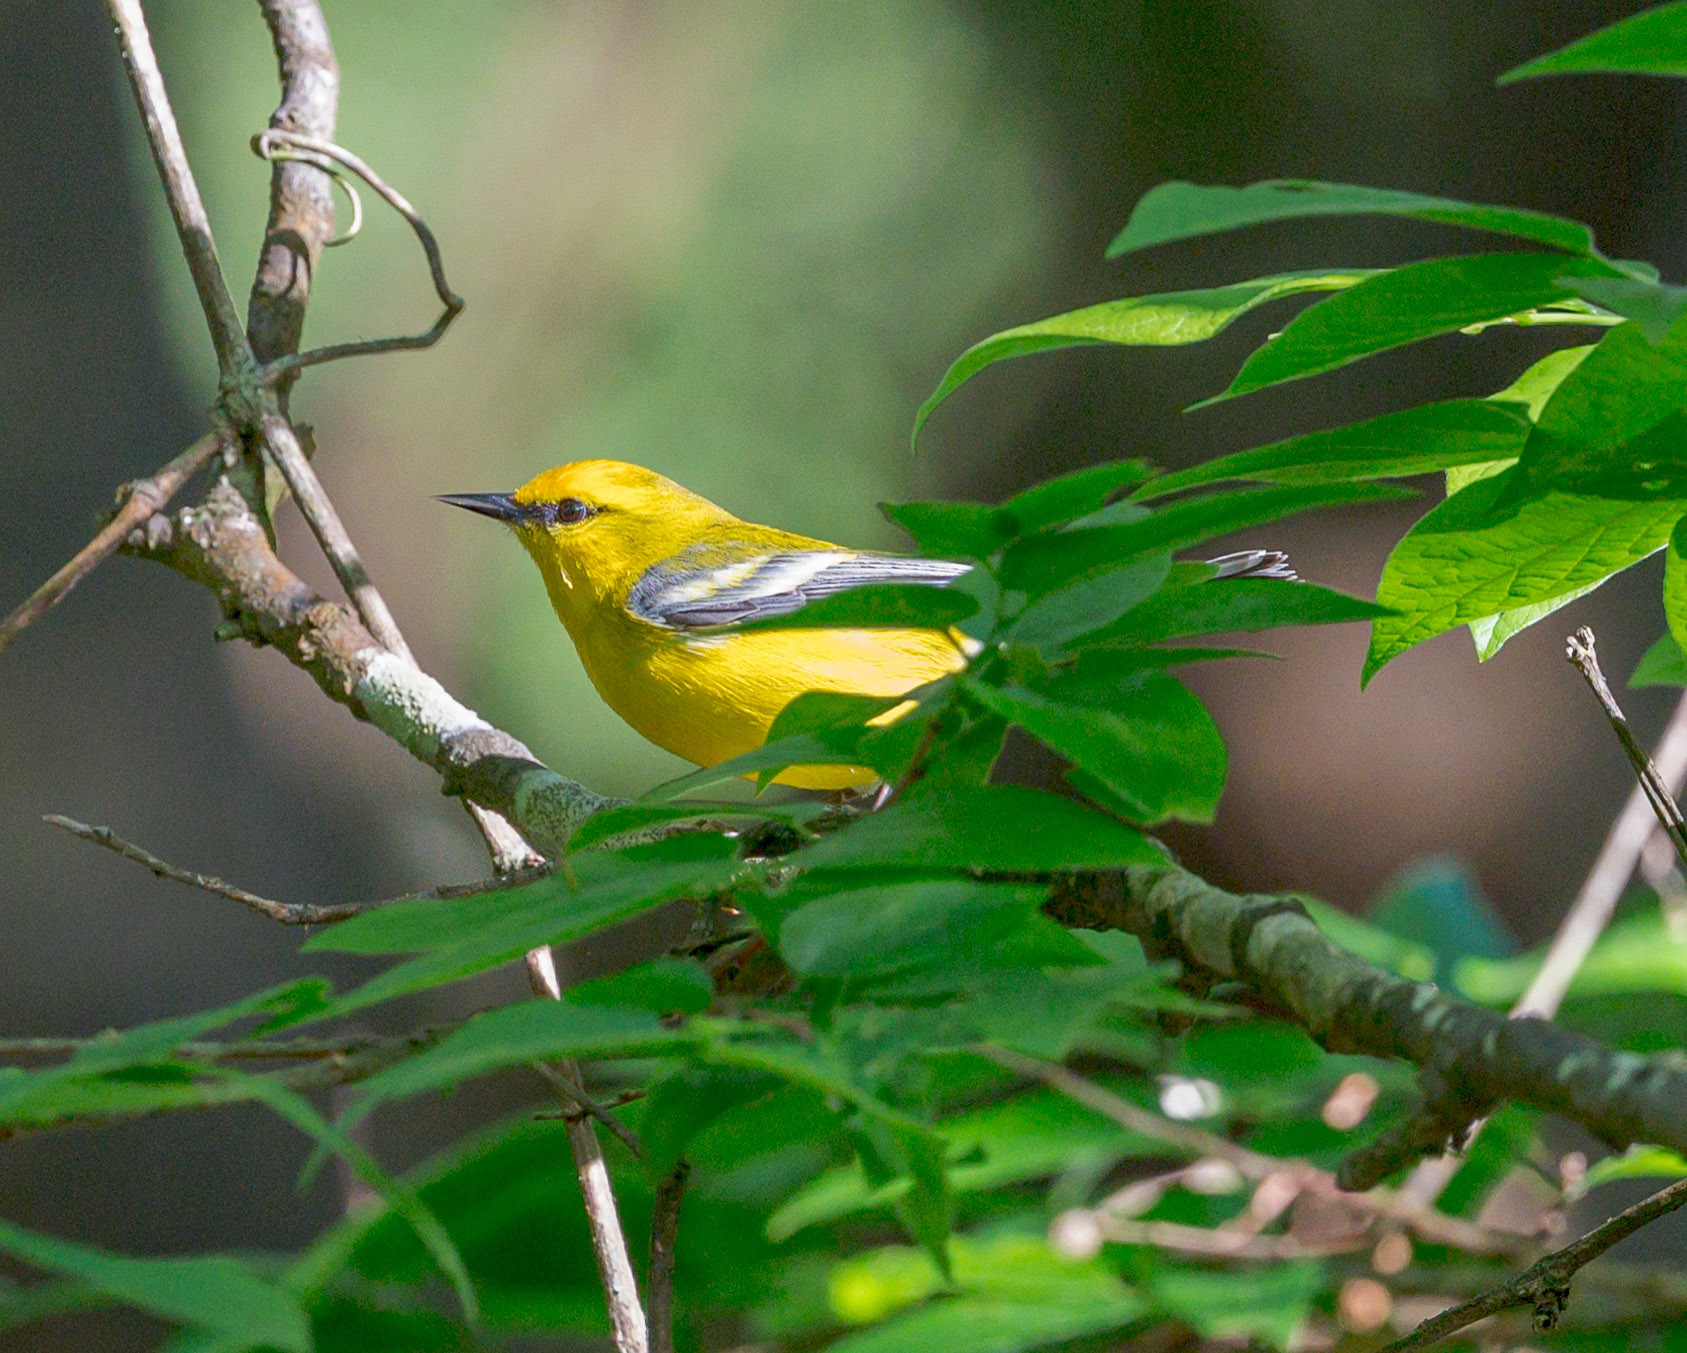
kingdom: Animalia
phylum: Chordata
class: Aves
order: Passeriformes
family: Parulidae
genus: Vermivora
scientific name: Vermivora cyanoptera
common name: Blue-winged warbler
